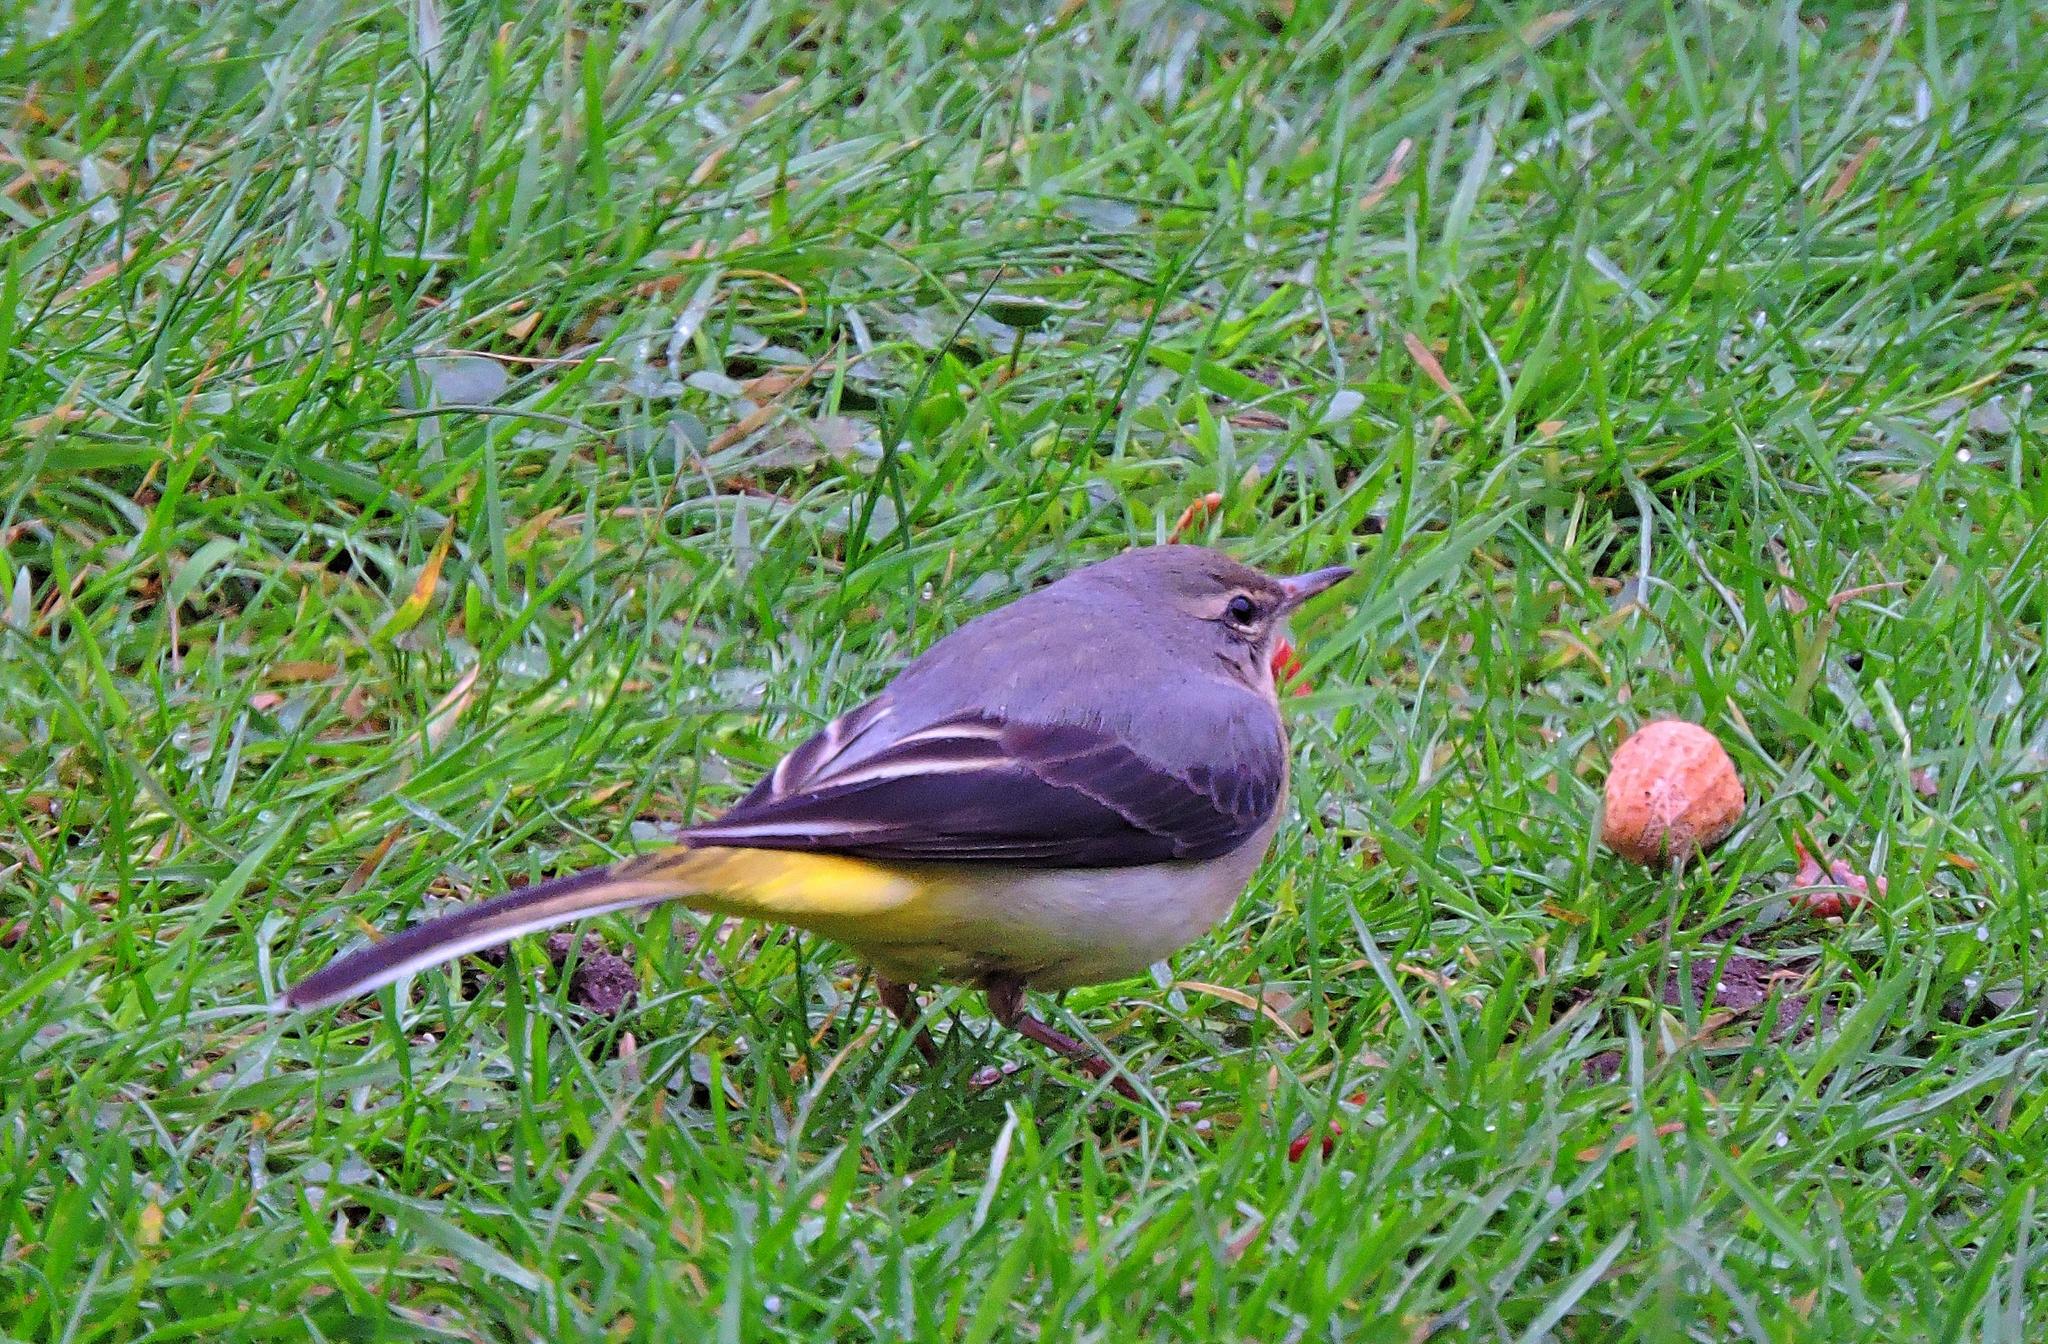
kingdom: Animalia
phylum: Chordata
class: Aves
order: Passeriformes
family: Motacillidae
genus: Motacilla
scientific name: Motacilla cinerea
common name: Grey wagtail
